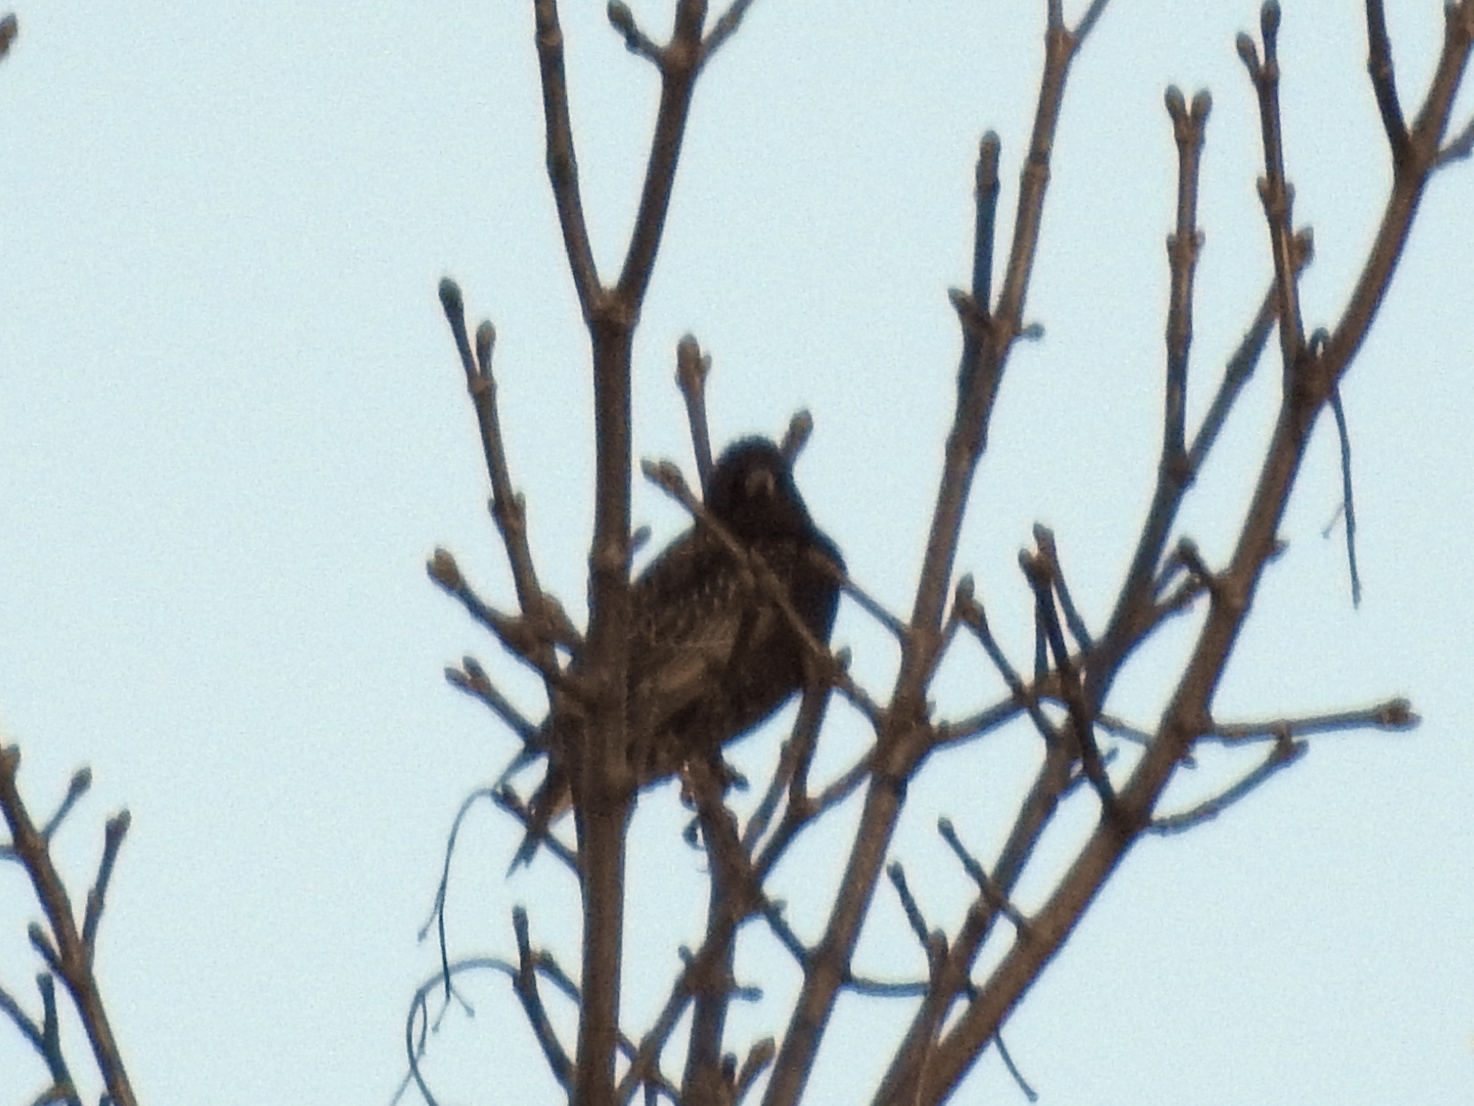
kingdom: Animalia
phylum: Chordata
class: Aves
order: Passeriformes
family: Sturnidae
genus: Sturnus
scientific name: Sturnus vulgaris
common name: Common starling
